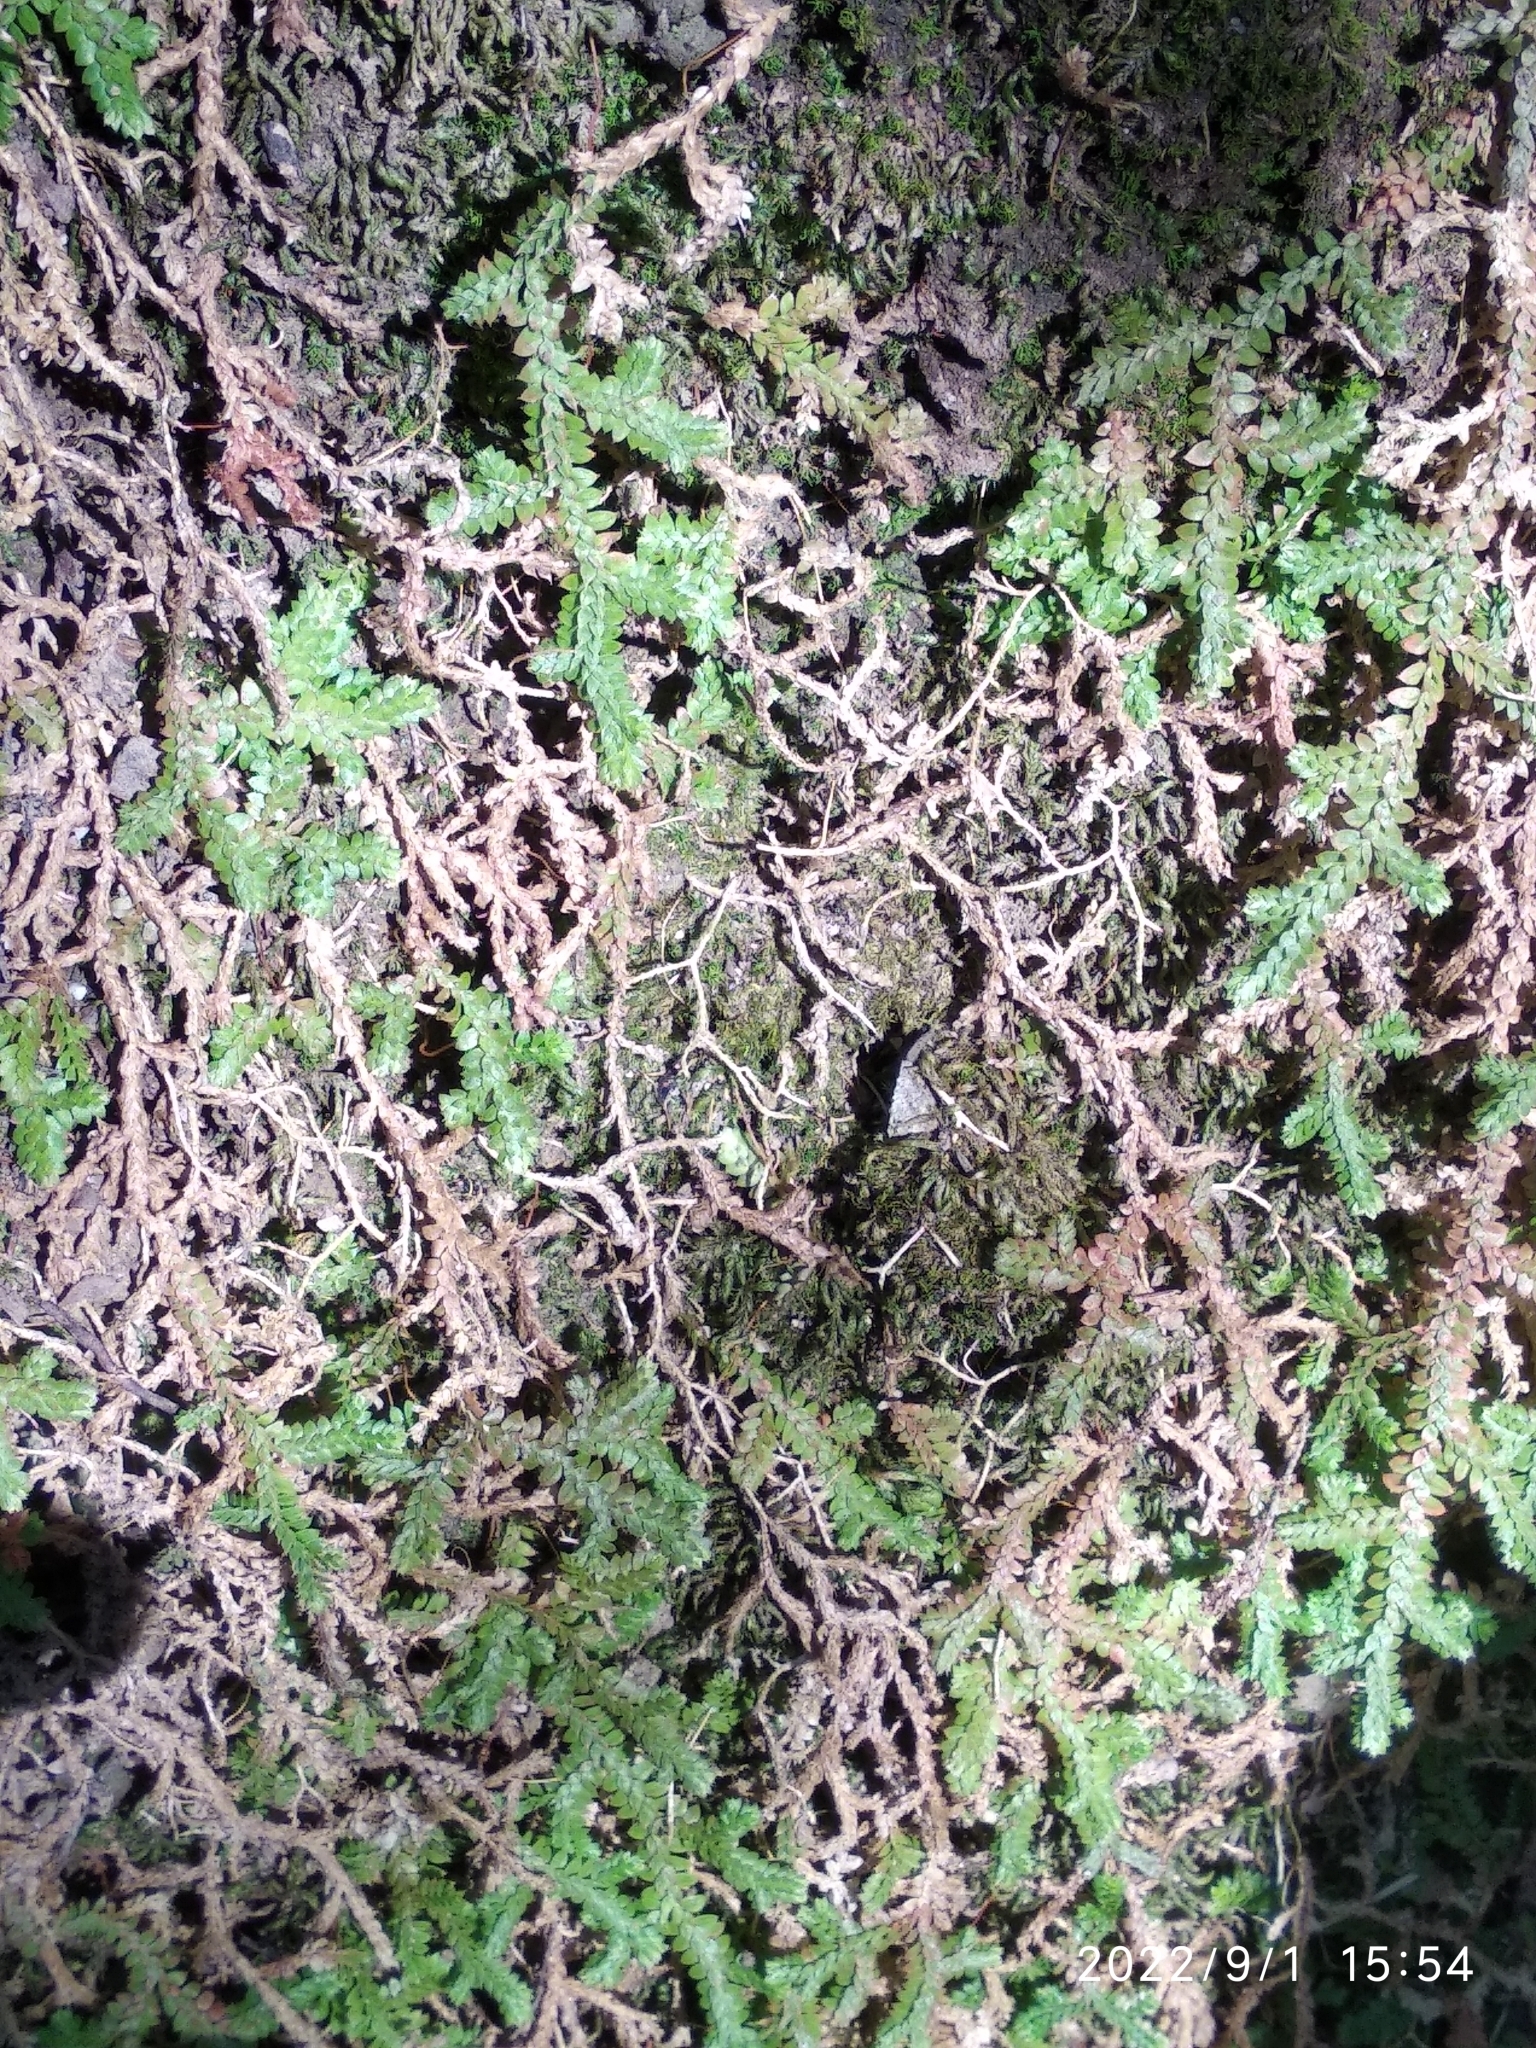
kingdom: Plantae
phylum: Tracheophyta
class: Lycopodiopsida
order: Selaginellales
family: Selaginellaceae
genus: Selaginella
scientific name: Selaginella denticulata
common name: Toothed-leaved clubmoss
